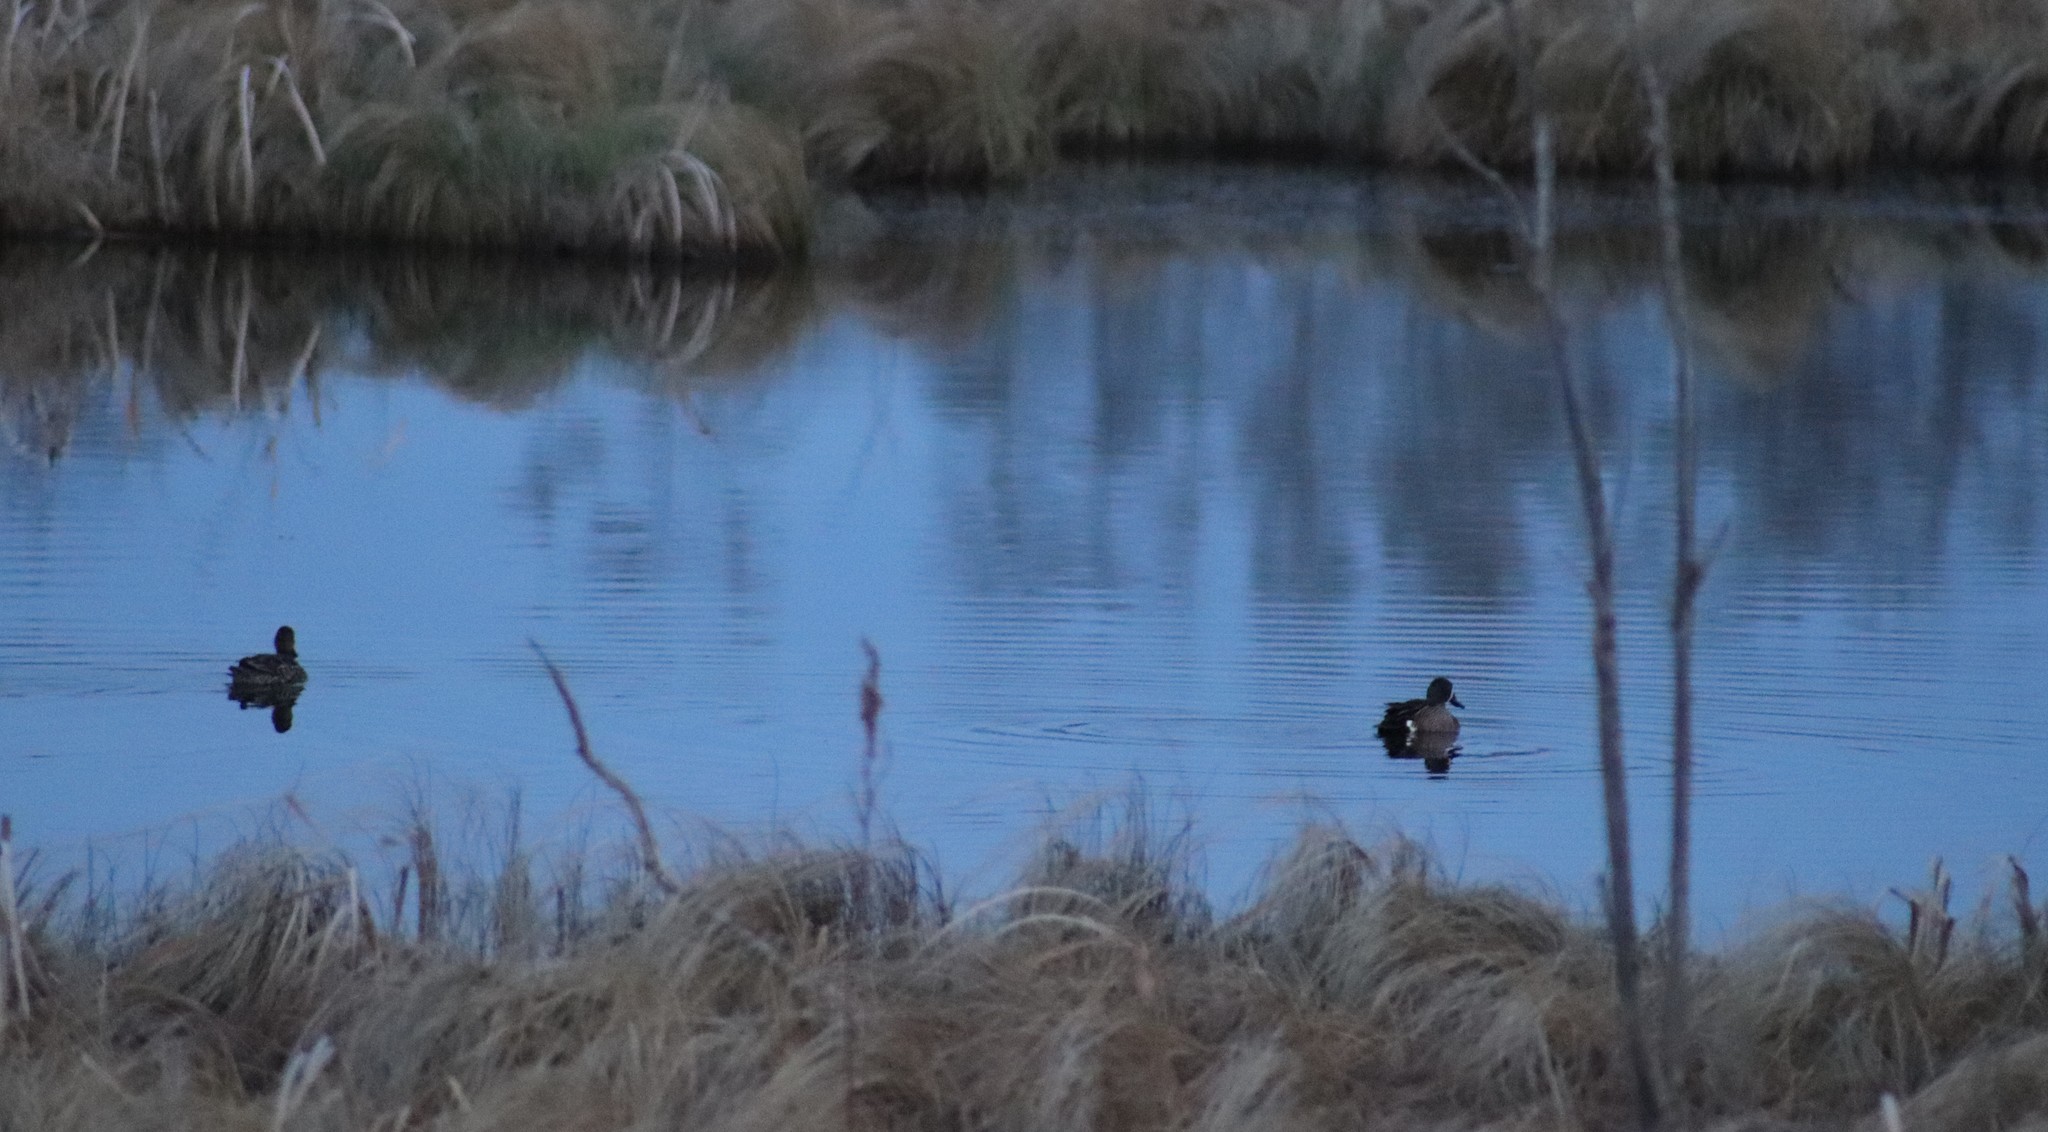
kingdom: Animalia
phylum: Chordata
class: Aves
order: Anseriformes
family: Anatidae
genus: Spatula
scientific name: Spatula discors
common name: Blue-winged teal
